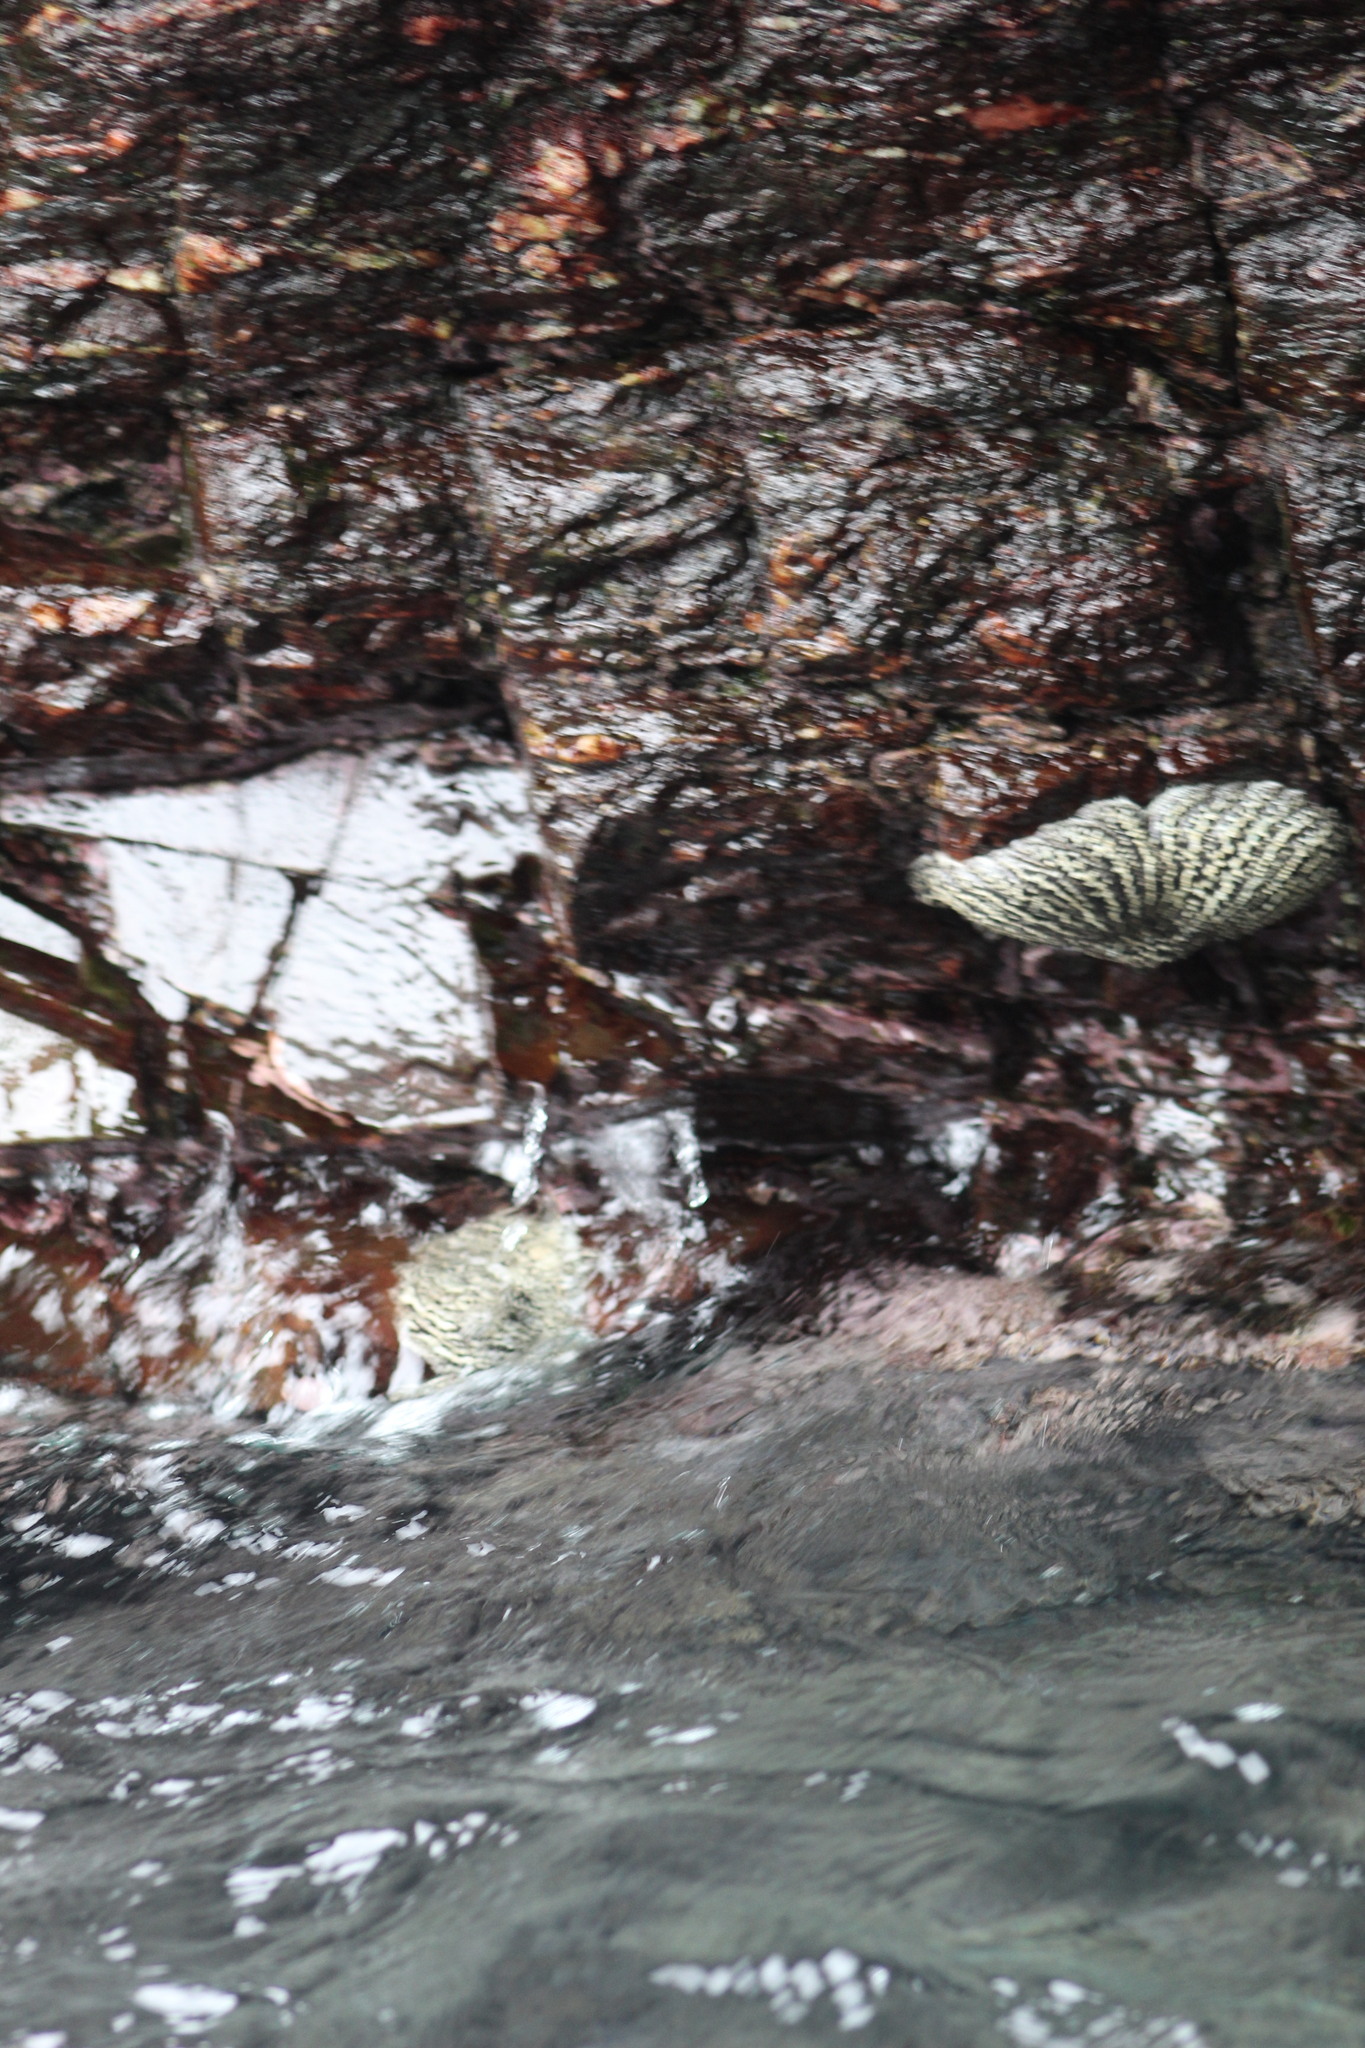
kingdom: Animalia
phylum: Echinodermata
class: Asteroidea
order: Forcipulatida
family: Heliasteridae
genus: Heliaster
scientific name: Heliaster helianthus
